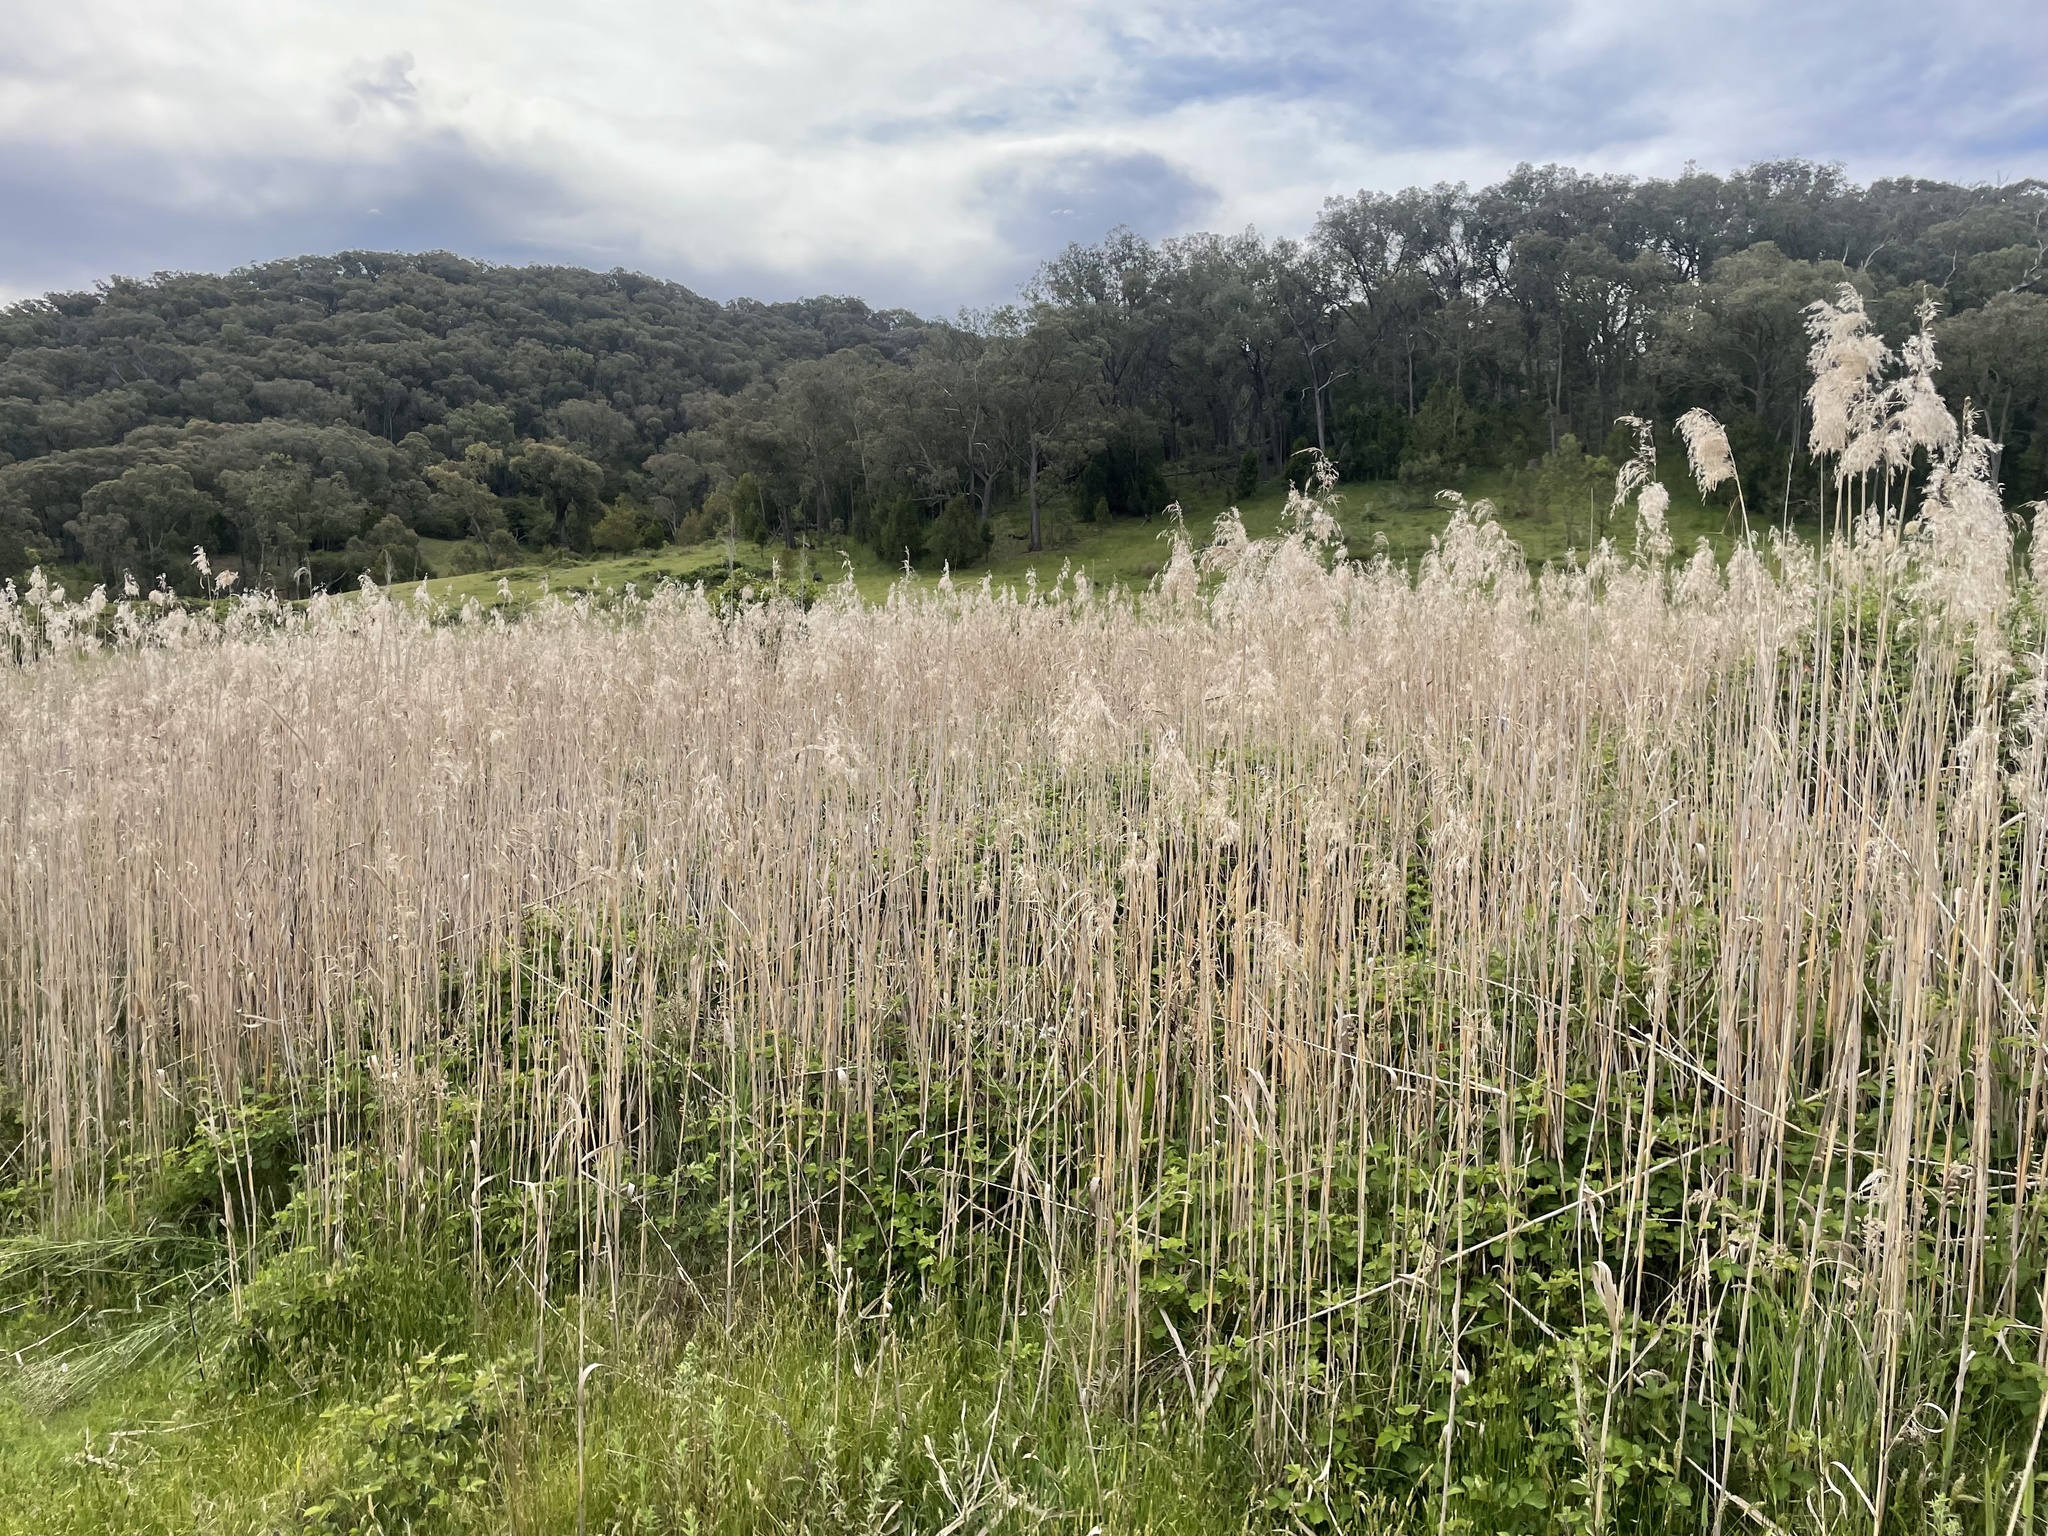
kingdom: Plantae
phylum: Tracheophyta
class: Liliopsida
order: Poales
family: Poaceae
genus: Phragmites
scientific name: Phragmites australis
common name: Common reed
